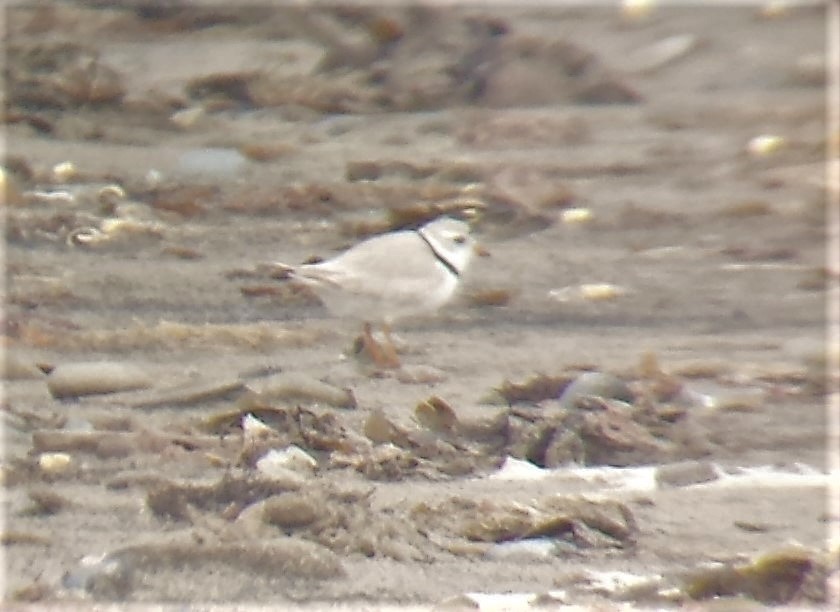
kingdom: Animalia
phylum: Chordata
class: Aves
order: Charadriiformes
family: Charadriidae
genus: Charadrius
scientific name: Charadrius melodus
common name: Piping plover
